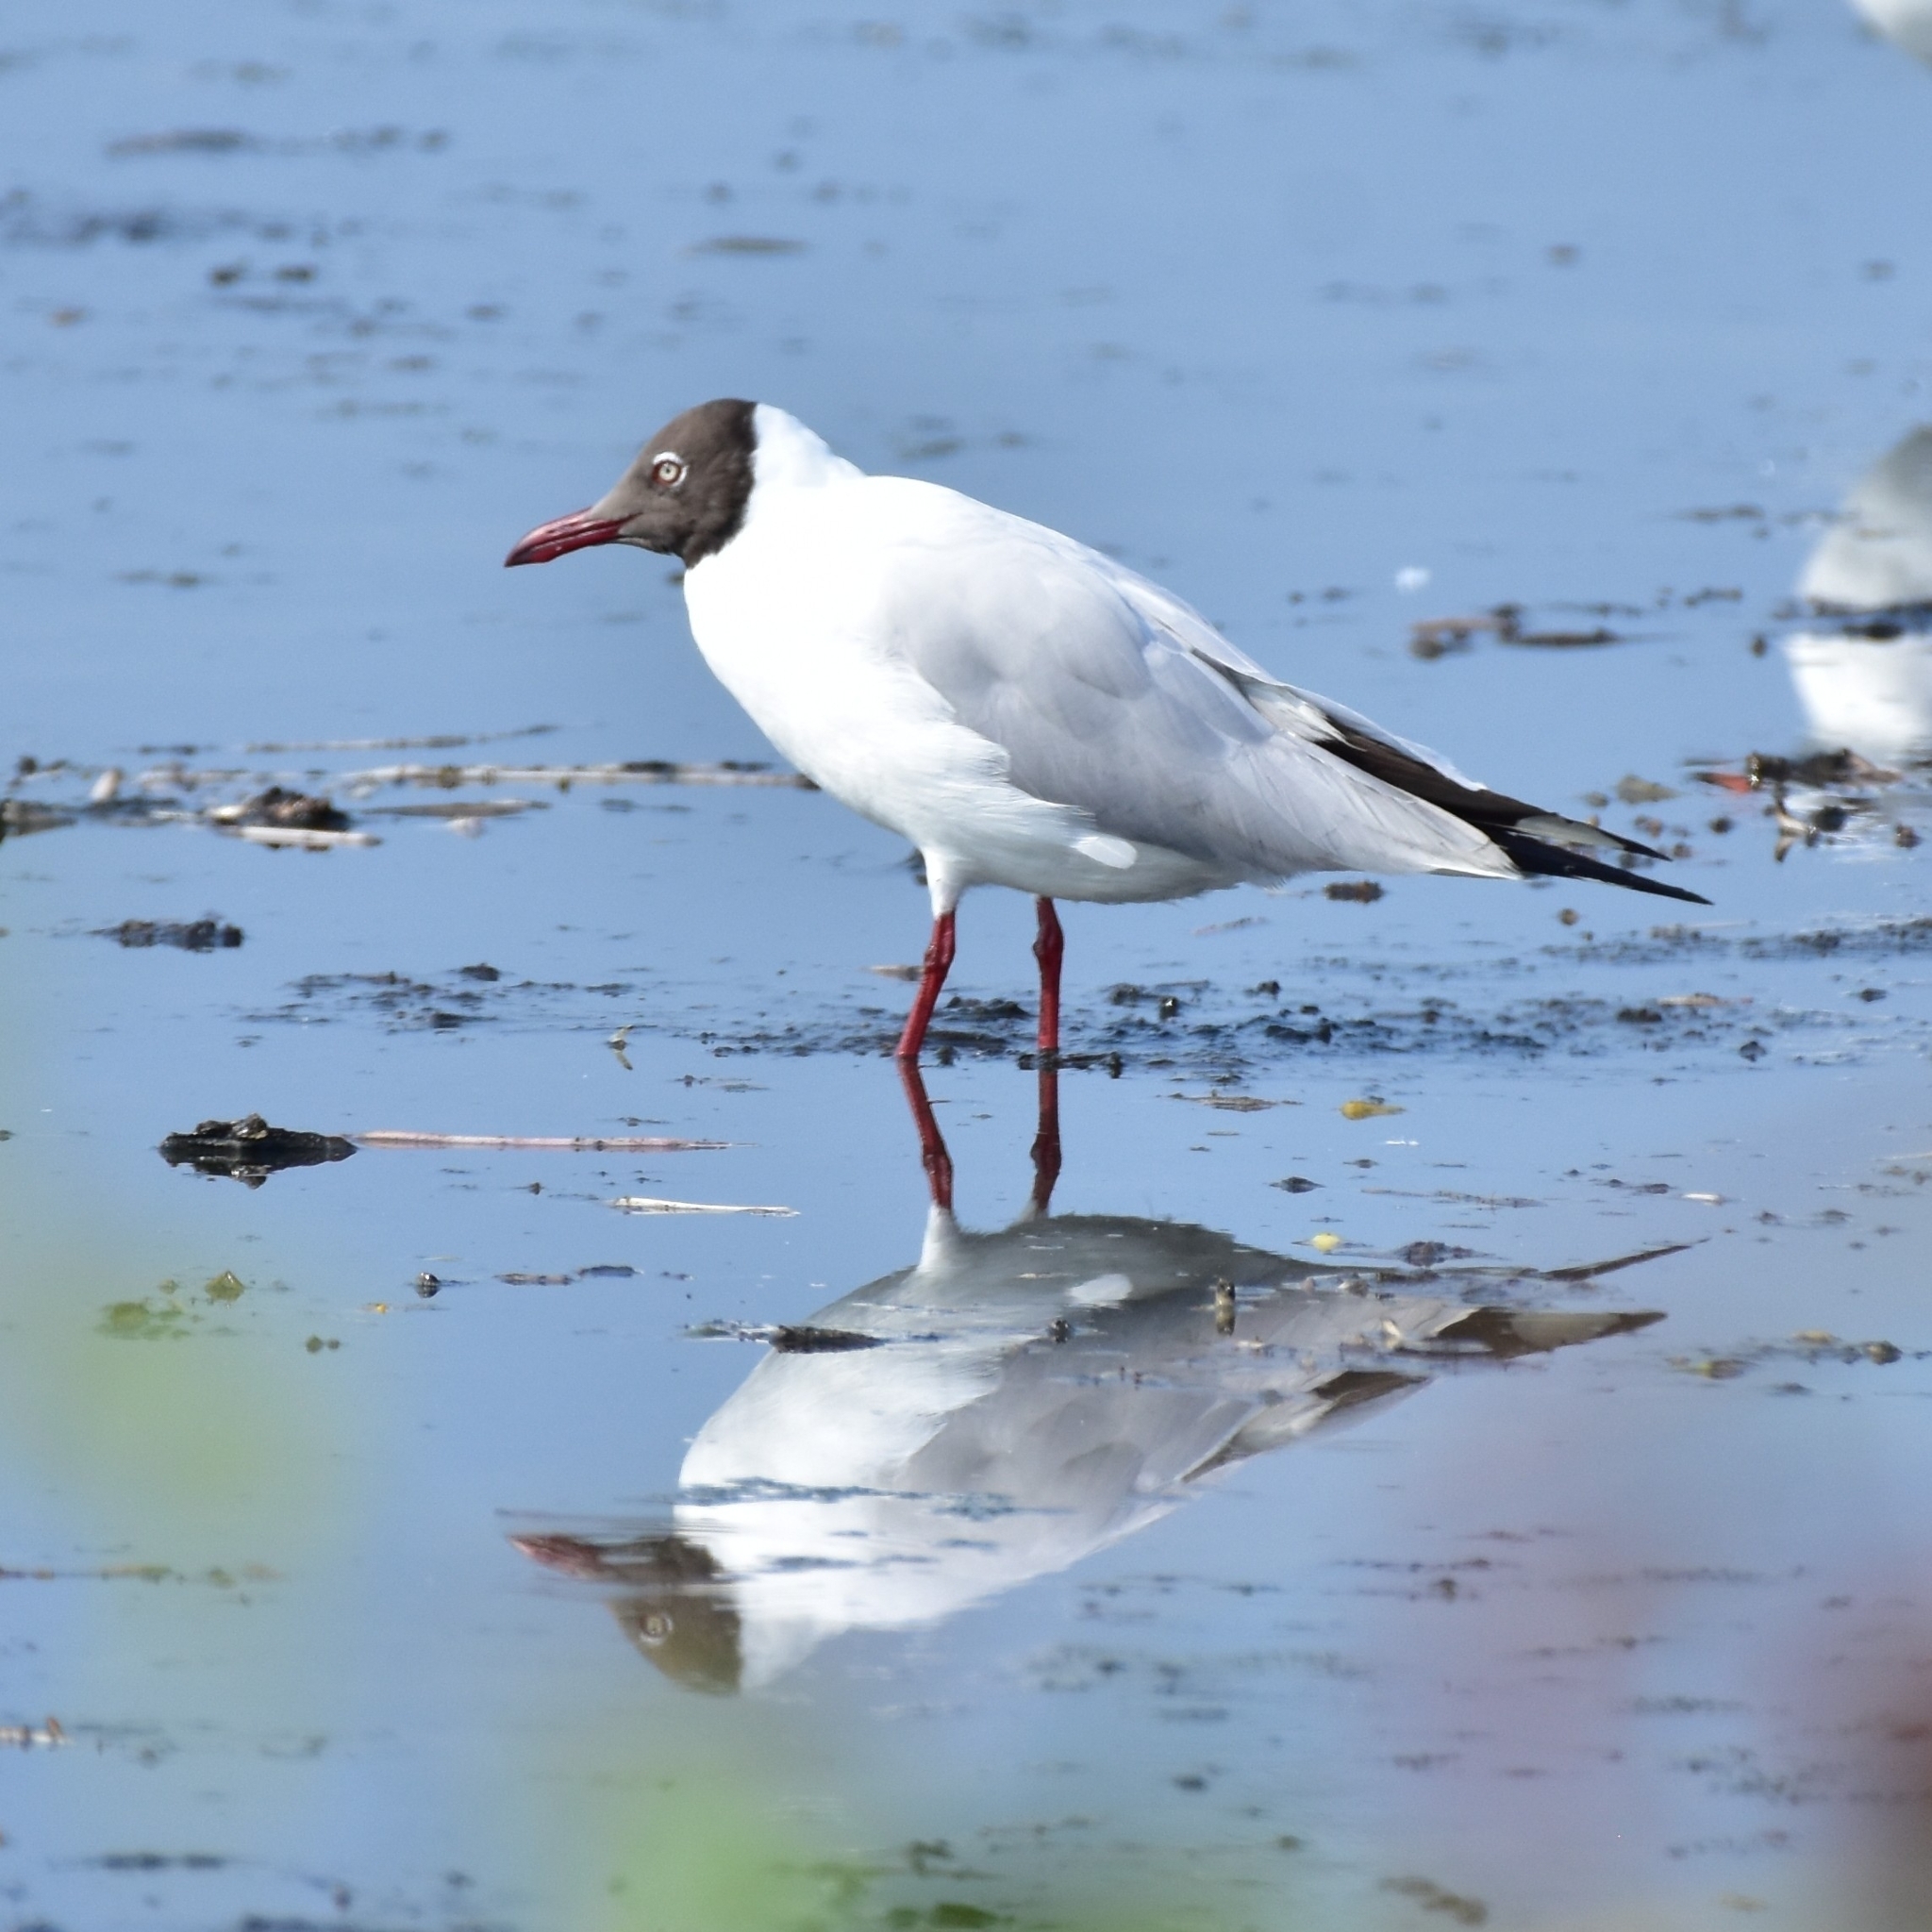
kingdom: Animalia
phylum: Chordata
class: Aves
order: Charadriiformes
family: Laridae
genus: Chroicocephalus
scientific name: Chroicocephalus brunnicephalus
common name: Brown-headed gull
